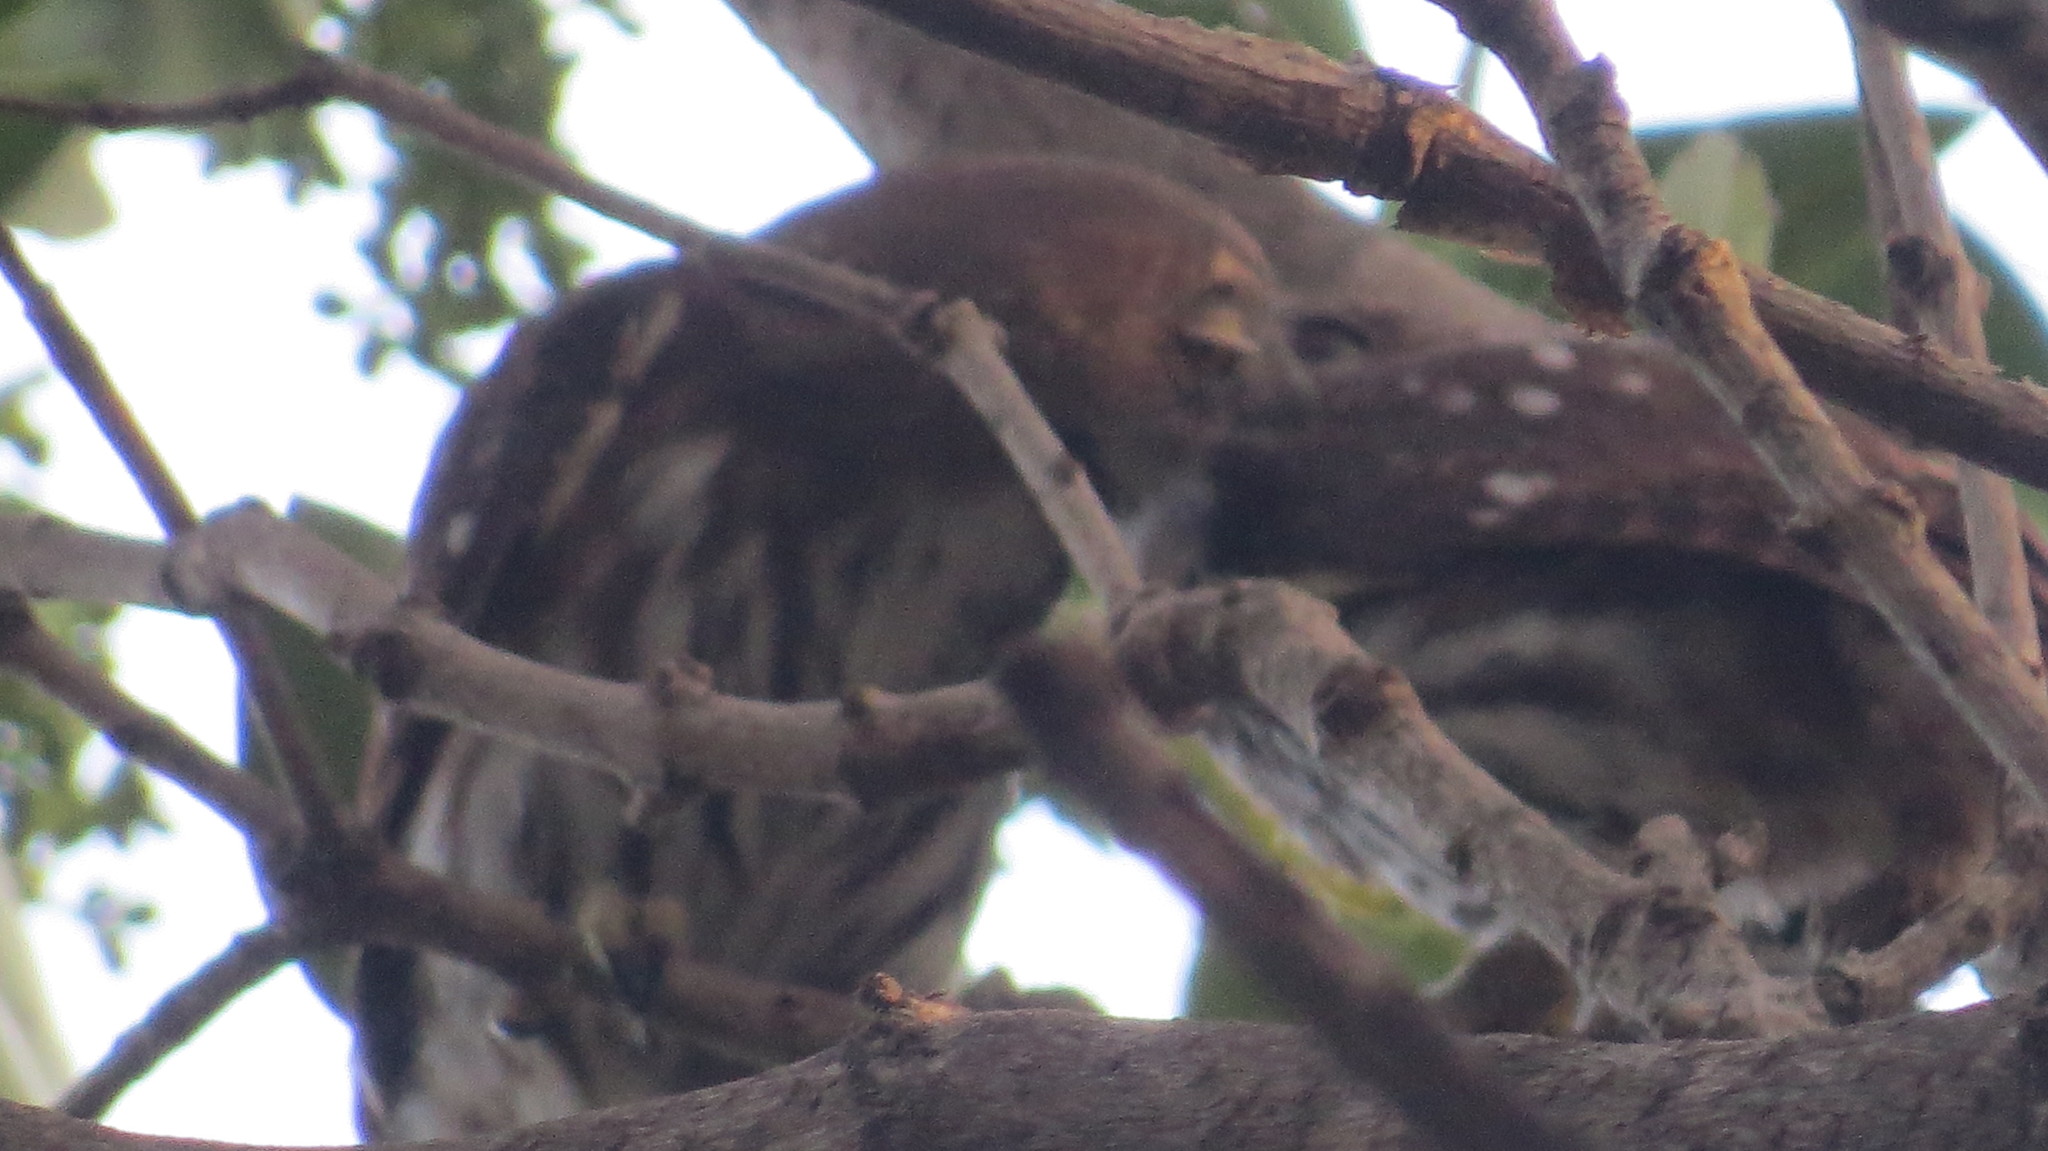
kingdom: Animalia
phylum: Chordata
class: Aves
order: Strigiformes
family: Strigidae
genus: Glaucidium
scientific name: Glaucidium brasilianum
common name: Ferruginous pygmy-owl
